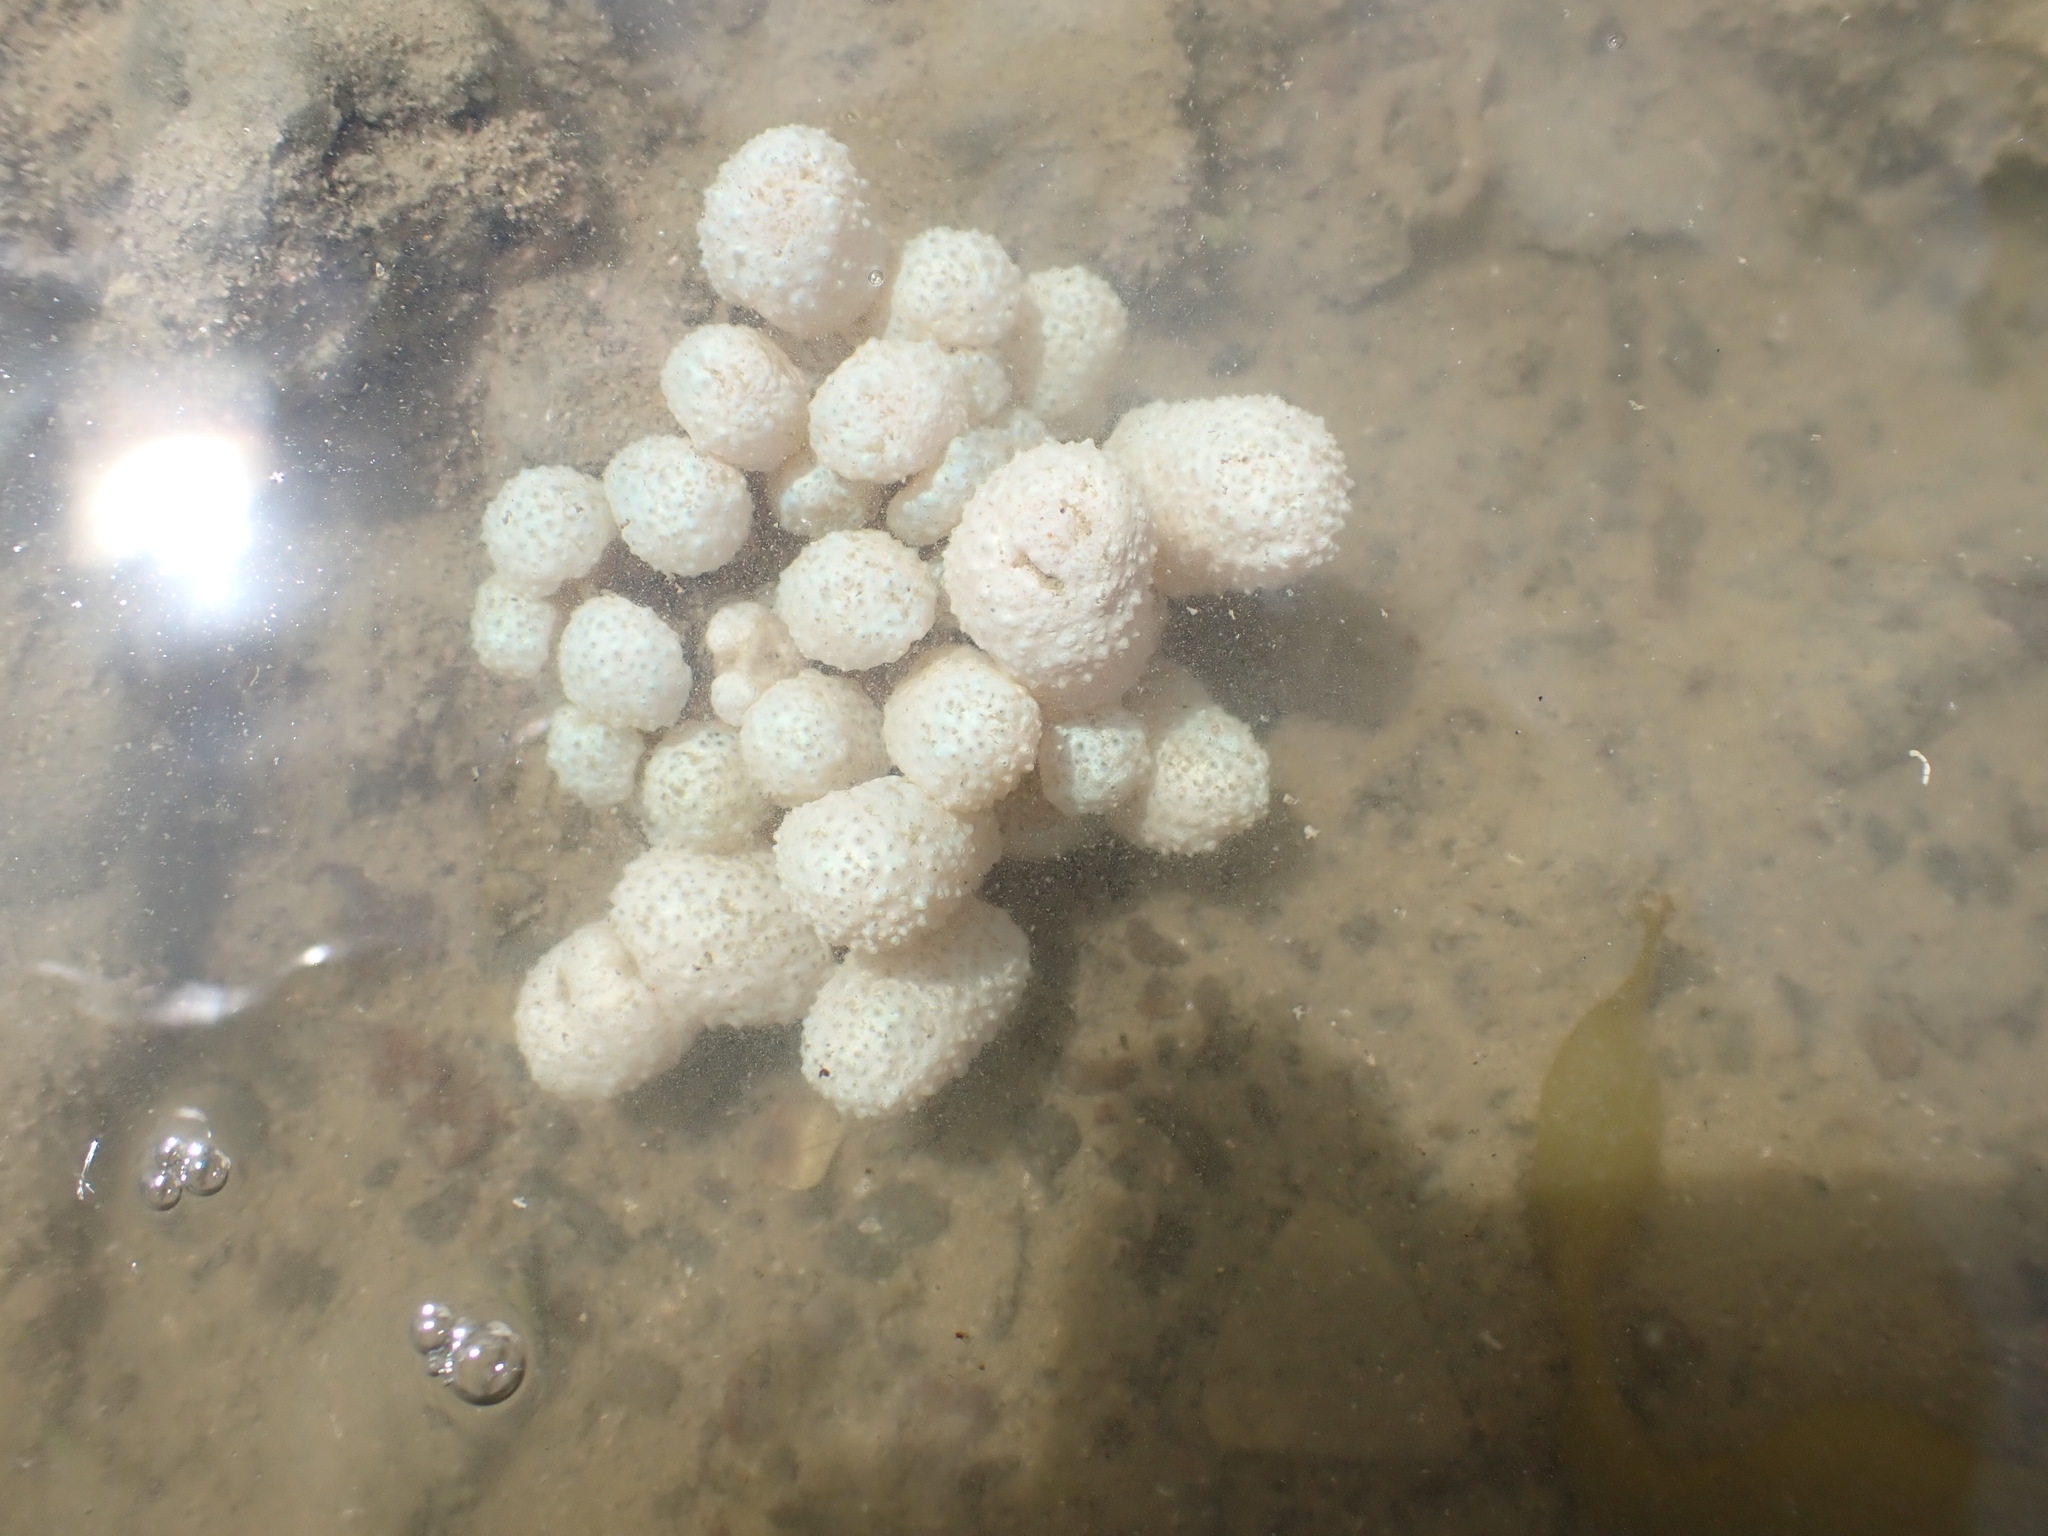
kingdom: Animalia
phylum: Chordata
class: Ascidiacea
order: Aplousobranchia
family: Polycitoridae
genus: Eudistoma
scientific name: Eudistoma elongatum
